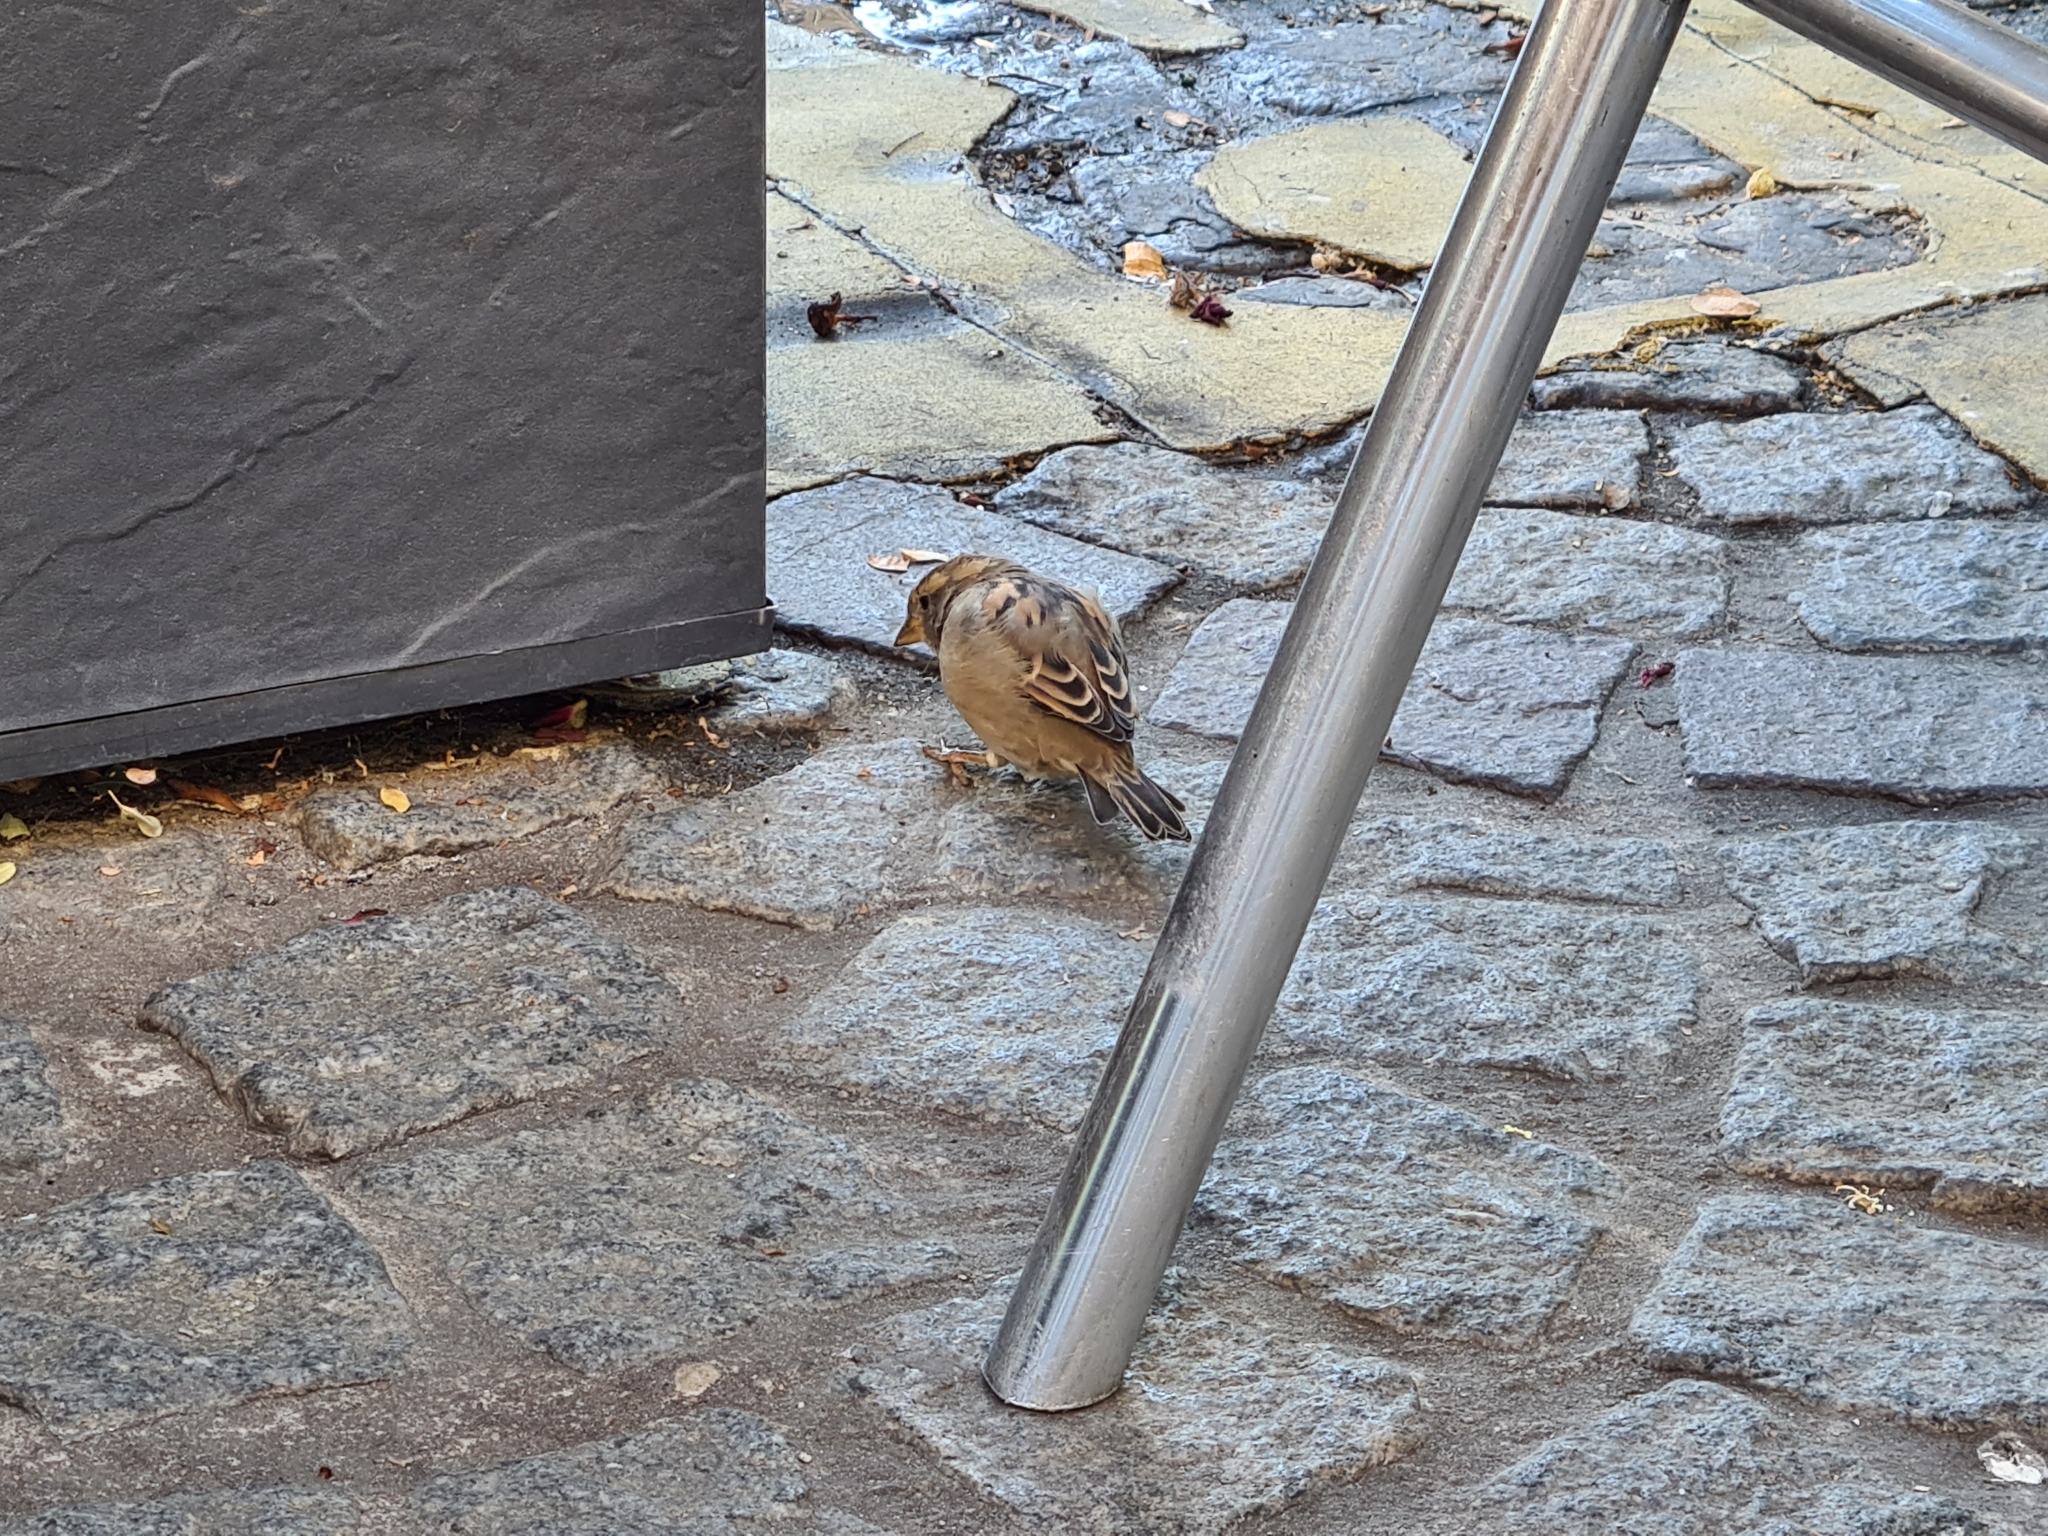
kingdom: Animalia
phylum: Chordata
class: Aves
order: Passeriformes
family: Passeridae
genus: Passer
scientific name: Passer domesticus
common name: House sparrow
